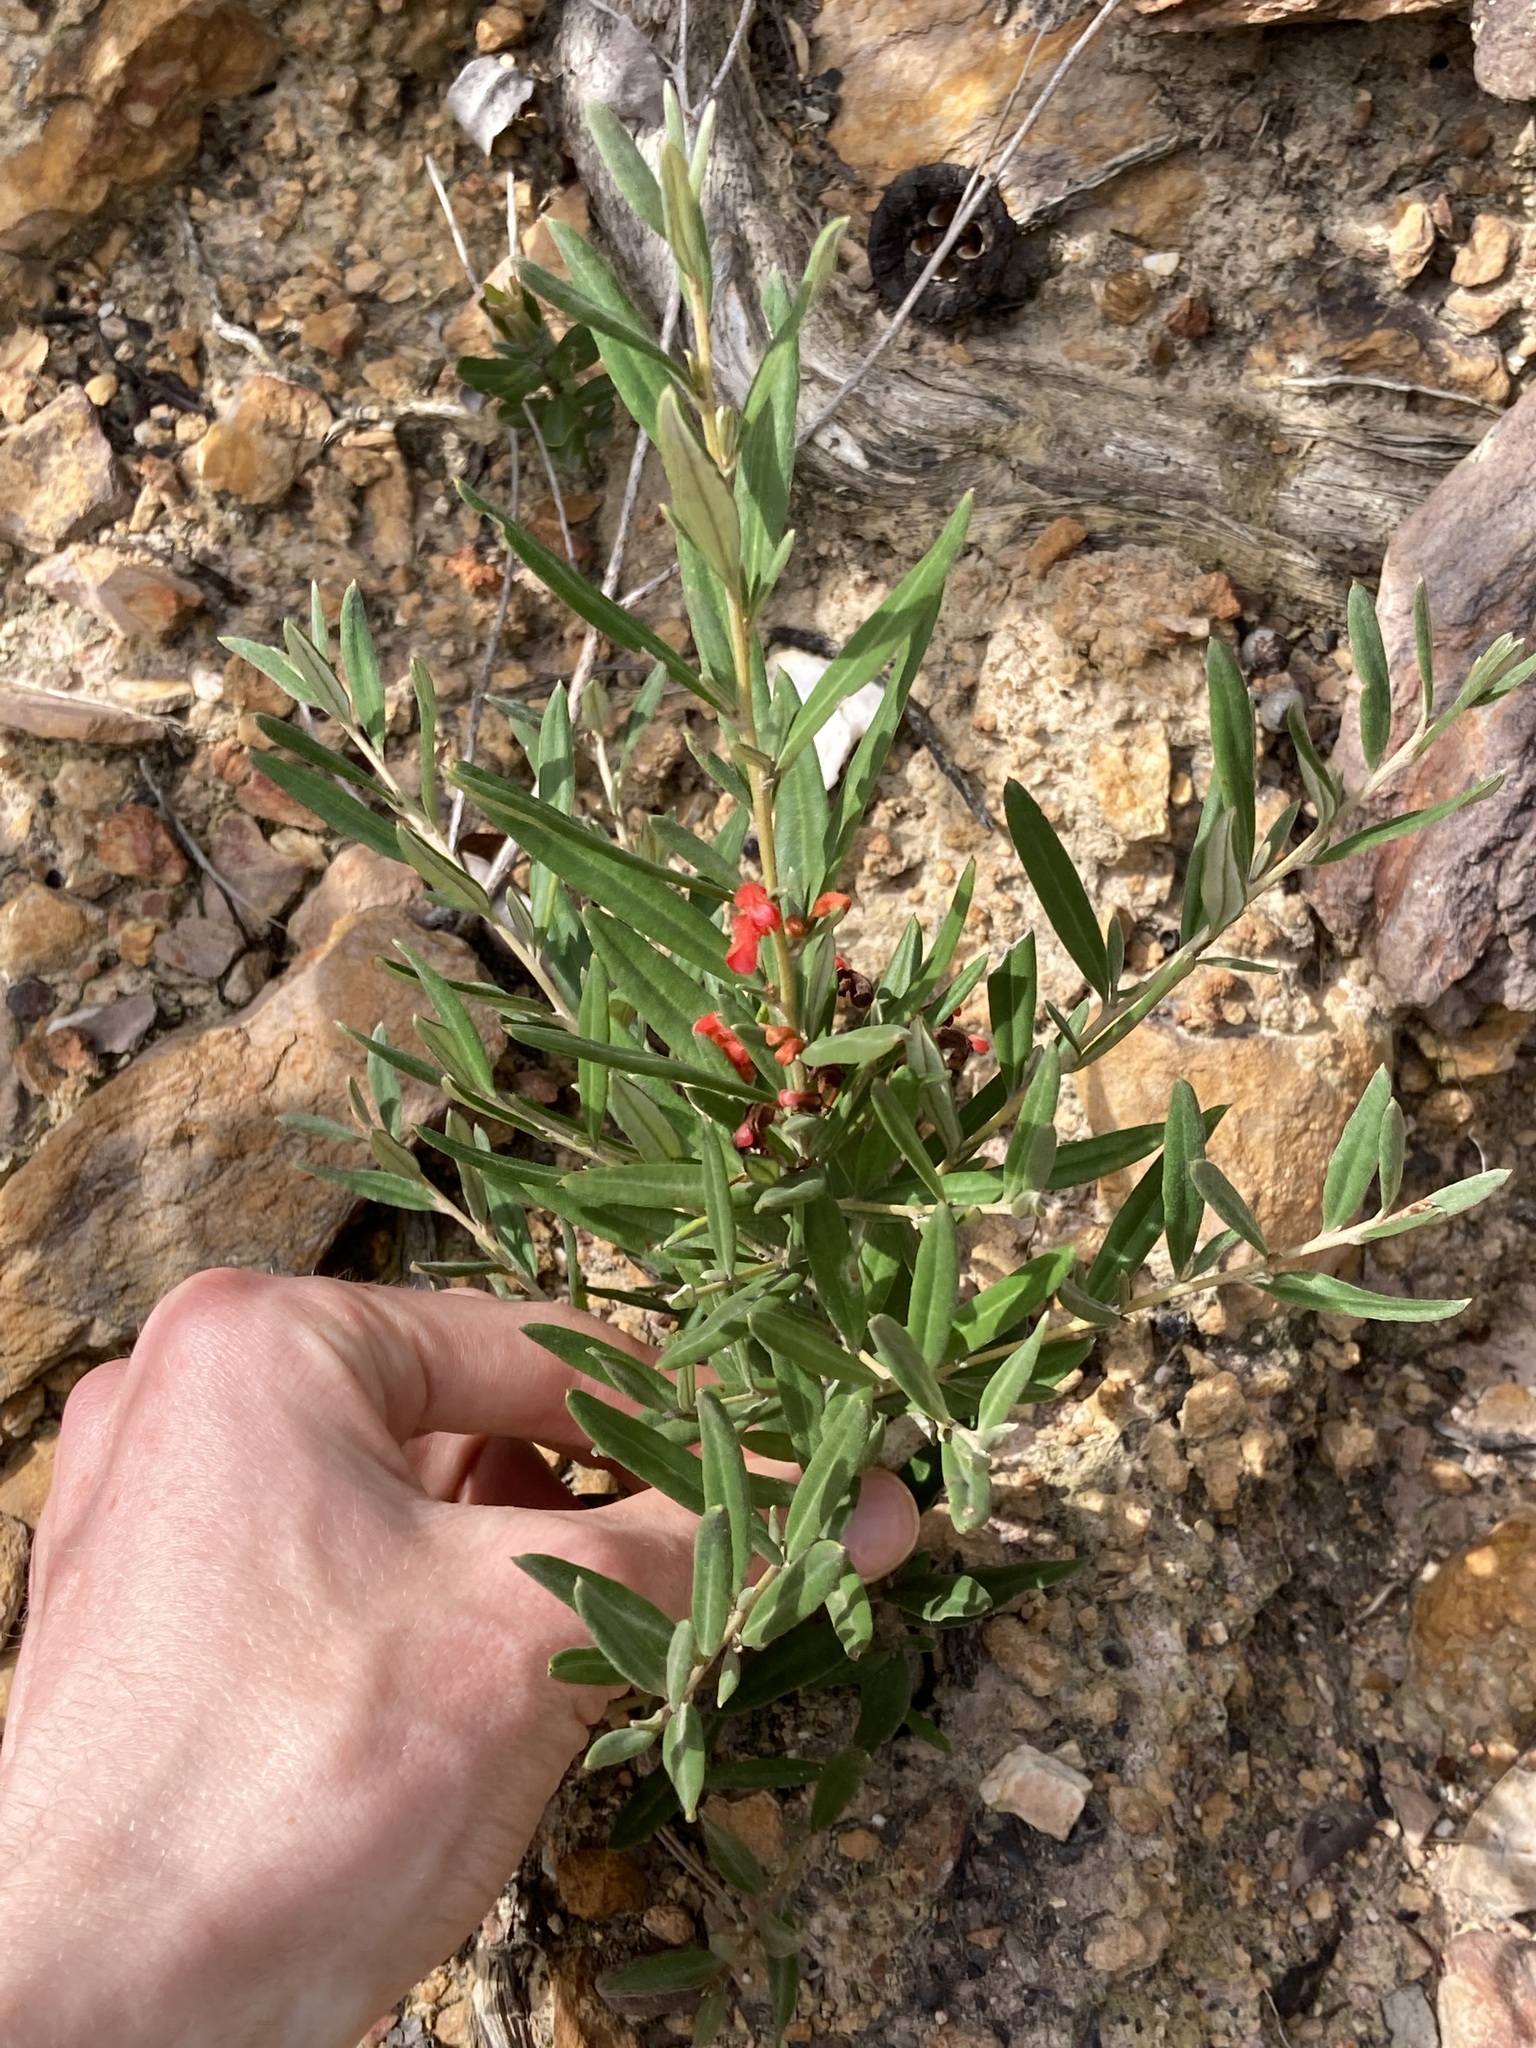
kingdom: Plantae
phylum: Tracheophyta
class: Magnoliopsida
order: Proteales
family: Proteaceae
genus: Grevillea
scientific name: Grevillea depauperata
